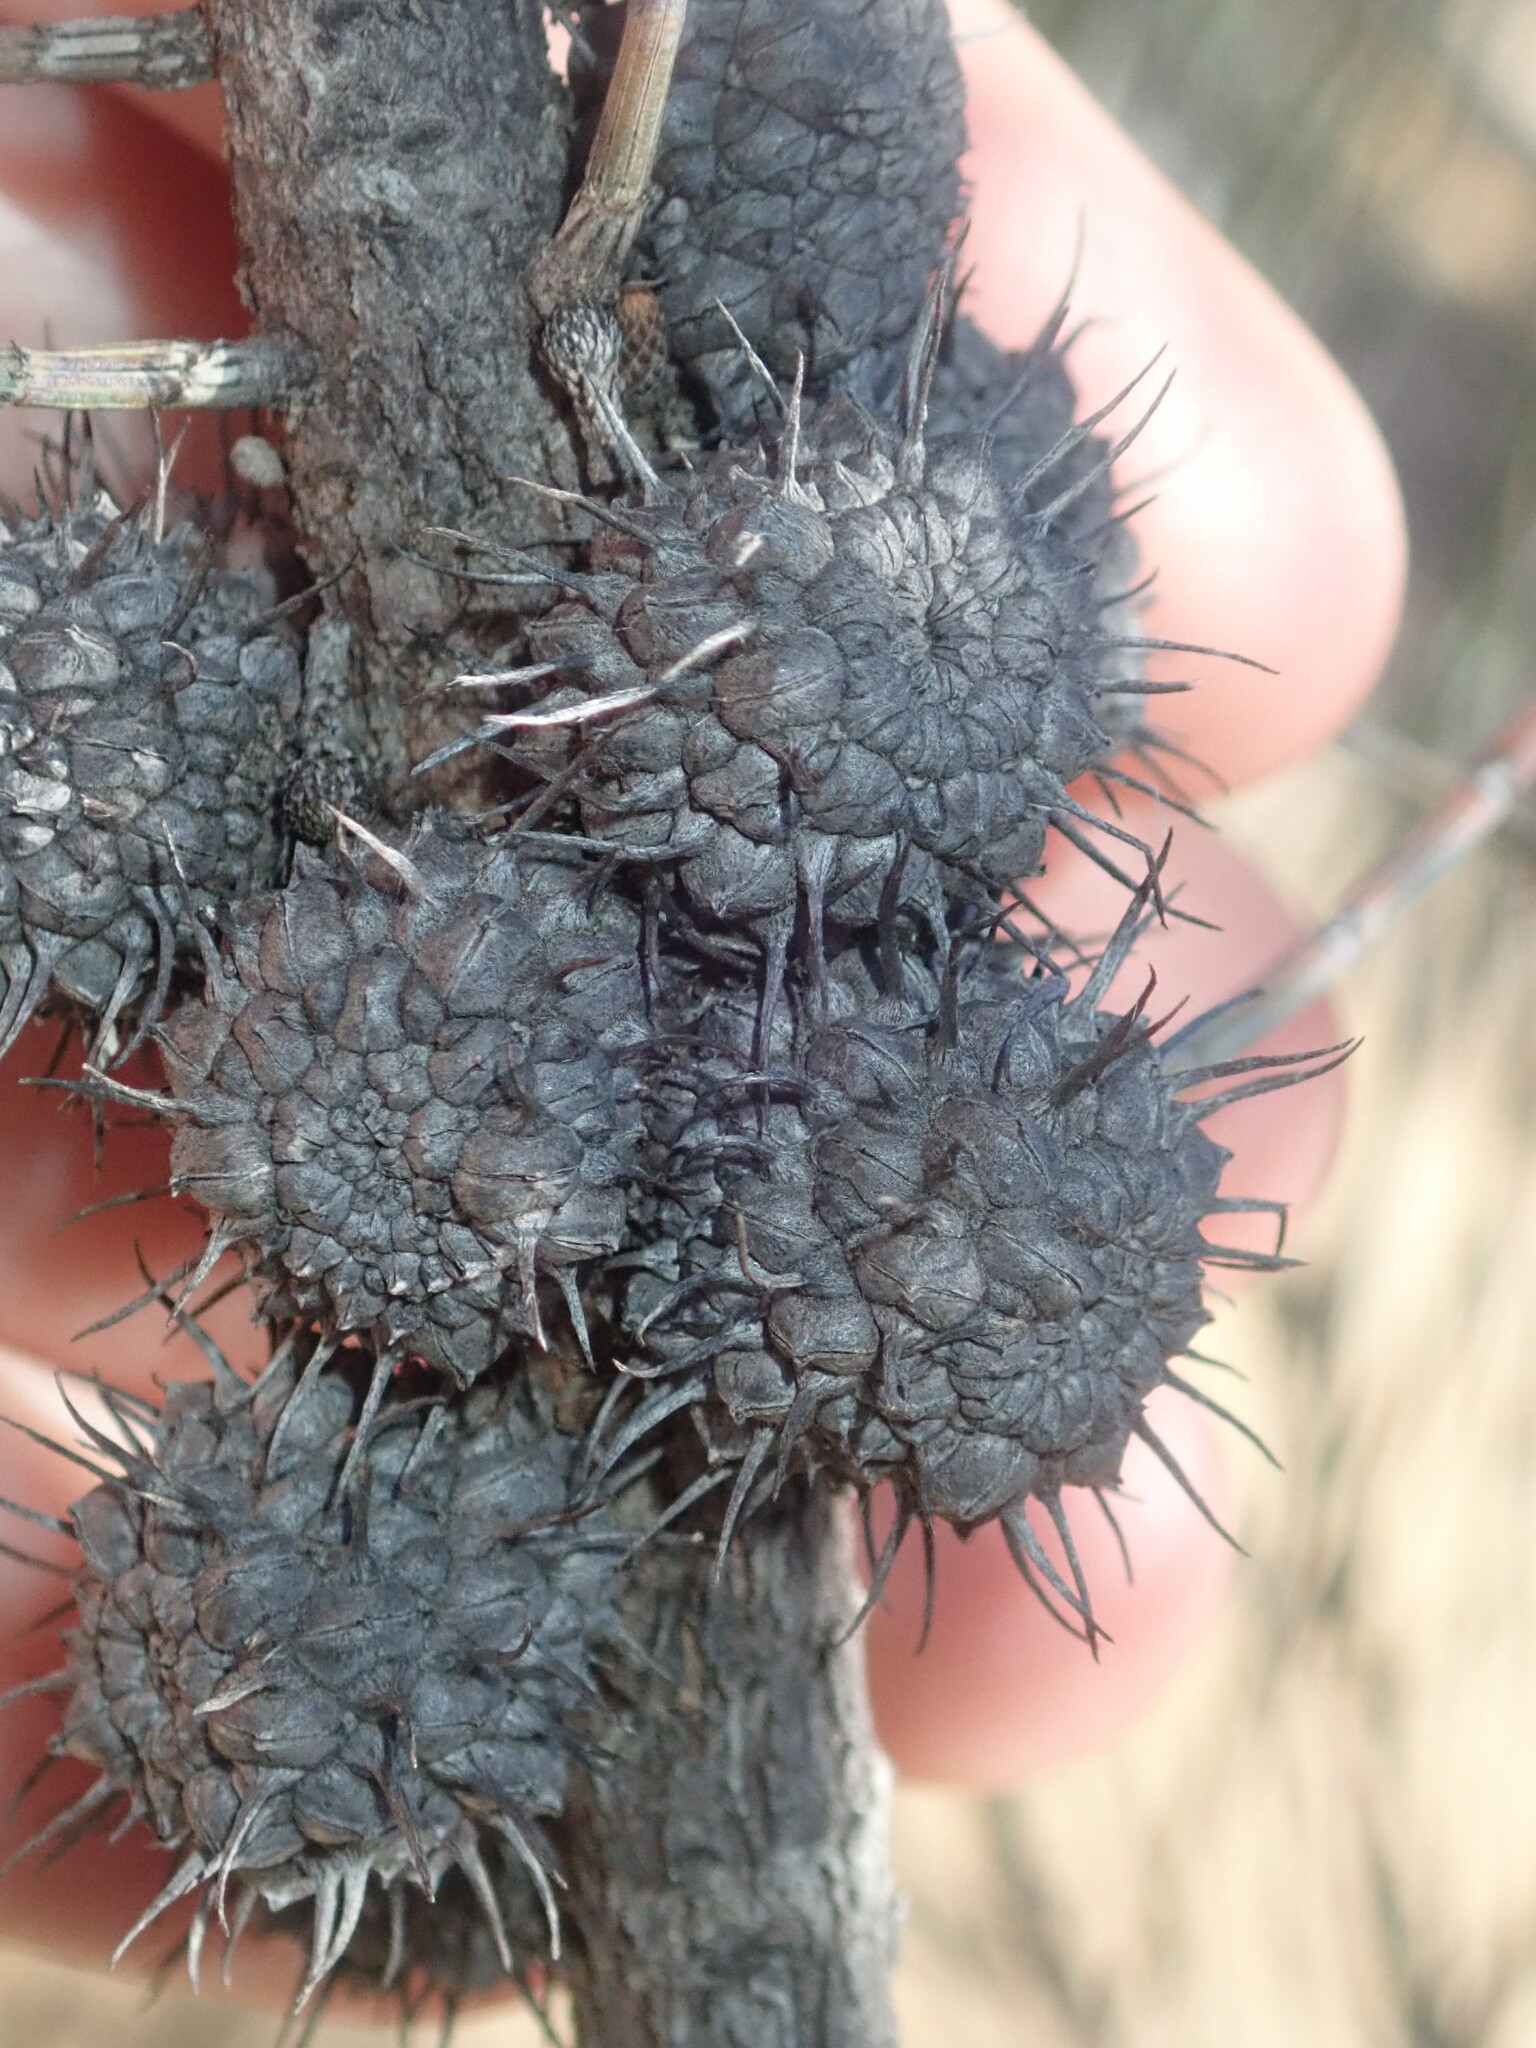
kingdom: Plantae
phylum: Tracheophyta
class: Magnoliopsida
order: Fagales
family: Casuarinaceae
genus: Allocasuarina
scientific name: Allocasuarina spinosissima
